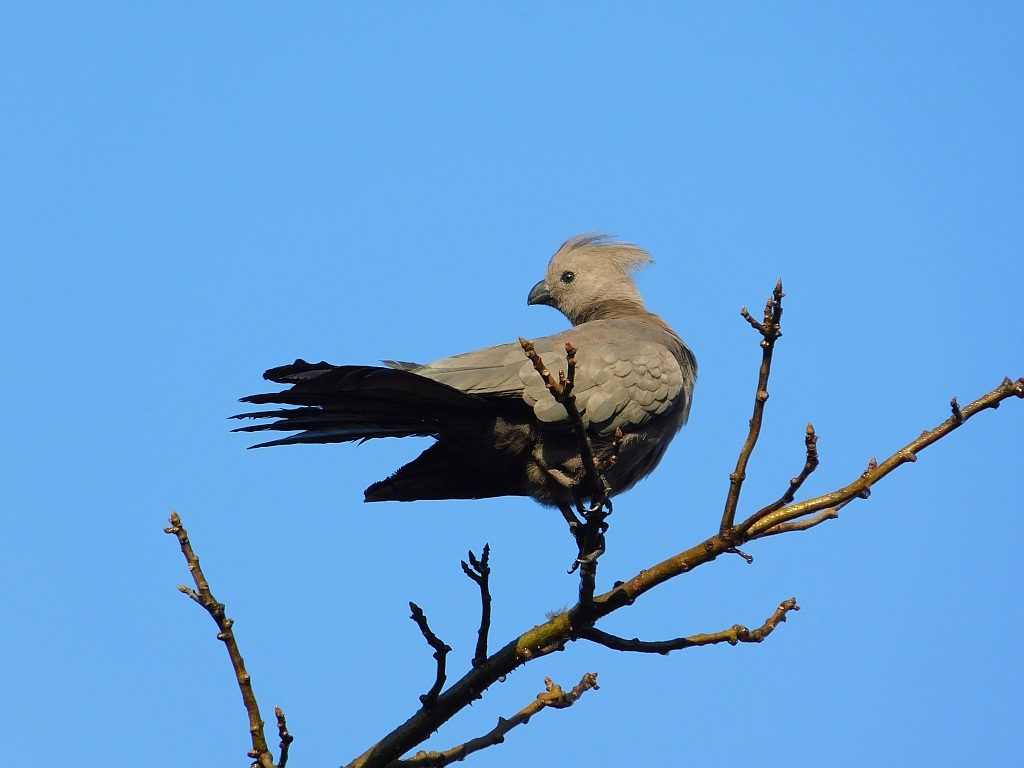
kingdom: Animalia
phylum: Chordata
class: Aves
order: Musophagiformes
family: Musophagidae
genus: Corythaixoides
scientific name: Corythaixoides concolor
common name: Grey go-away-bird
